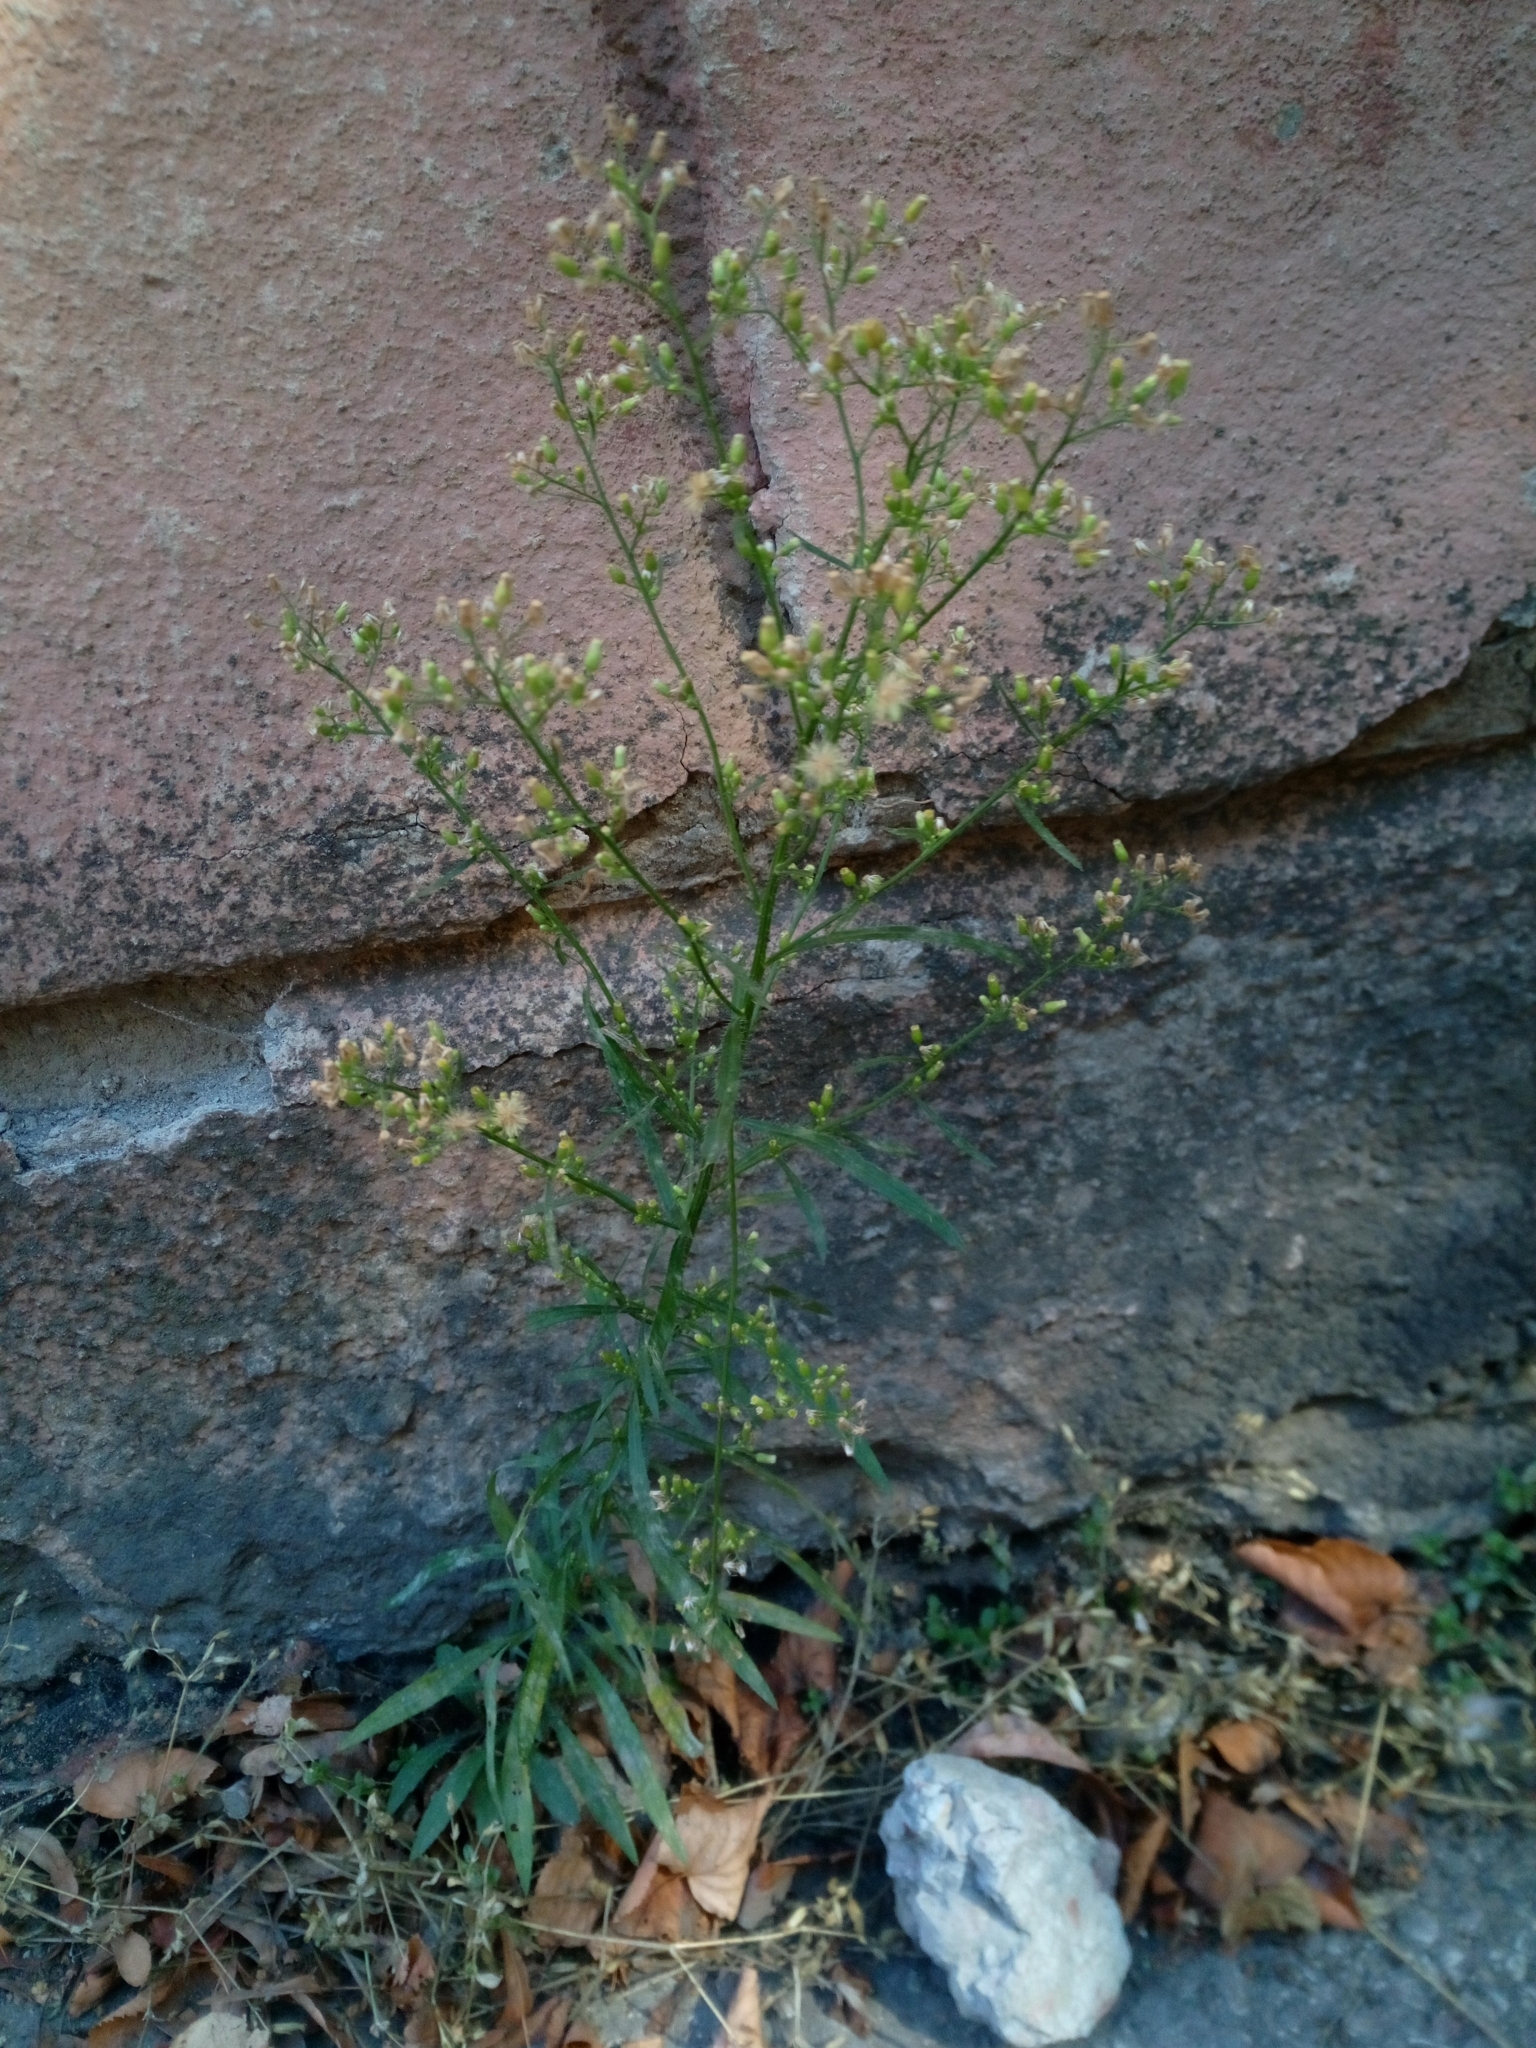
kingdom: Plantae
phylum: Tracheophyta
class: Magnoliopsida
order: Asterales
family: Asteraceae
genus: Erigeron
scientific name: Erigeron canadensis
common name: Canadian fleabane
